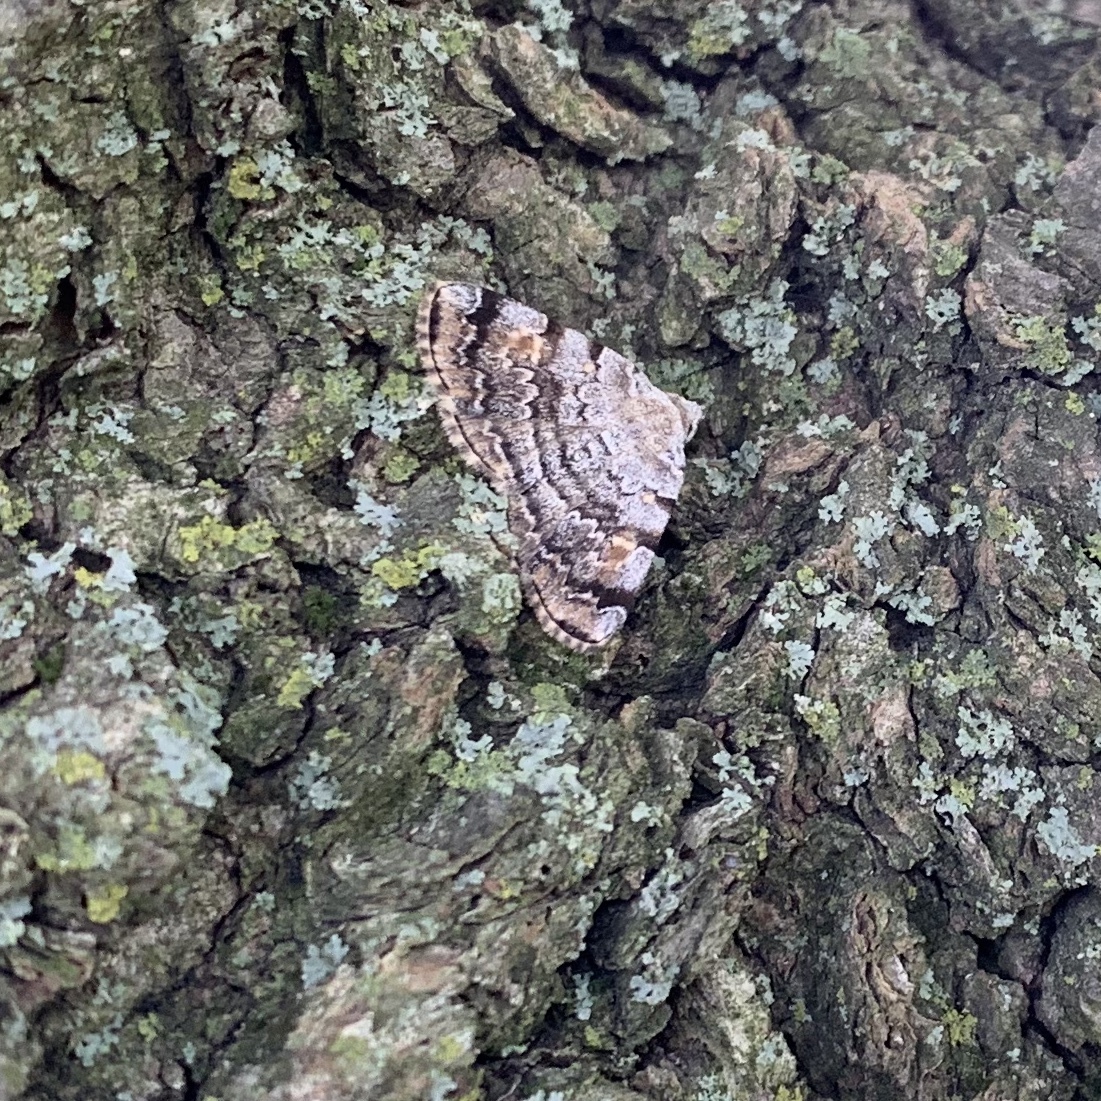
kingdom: Animalia
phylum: Arthropoda
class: Insecta
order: Lepidoptera
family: Erebidae
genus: Idia
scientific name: Idia americalis
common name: American idia moth
